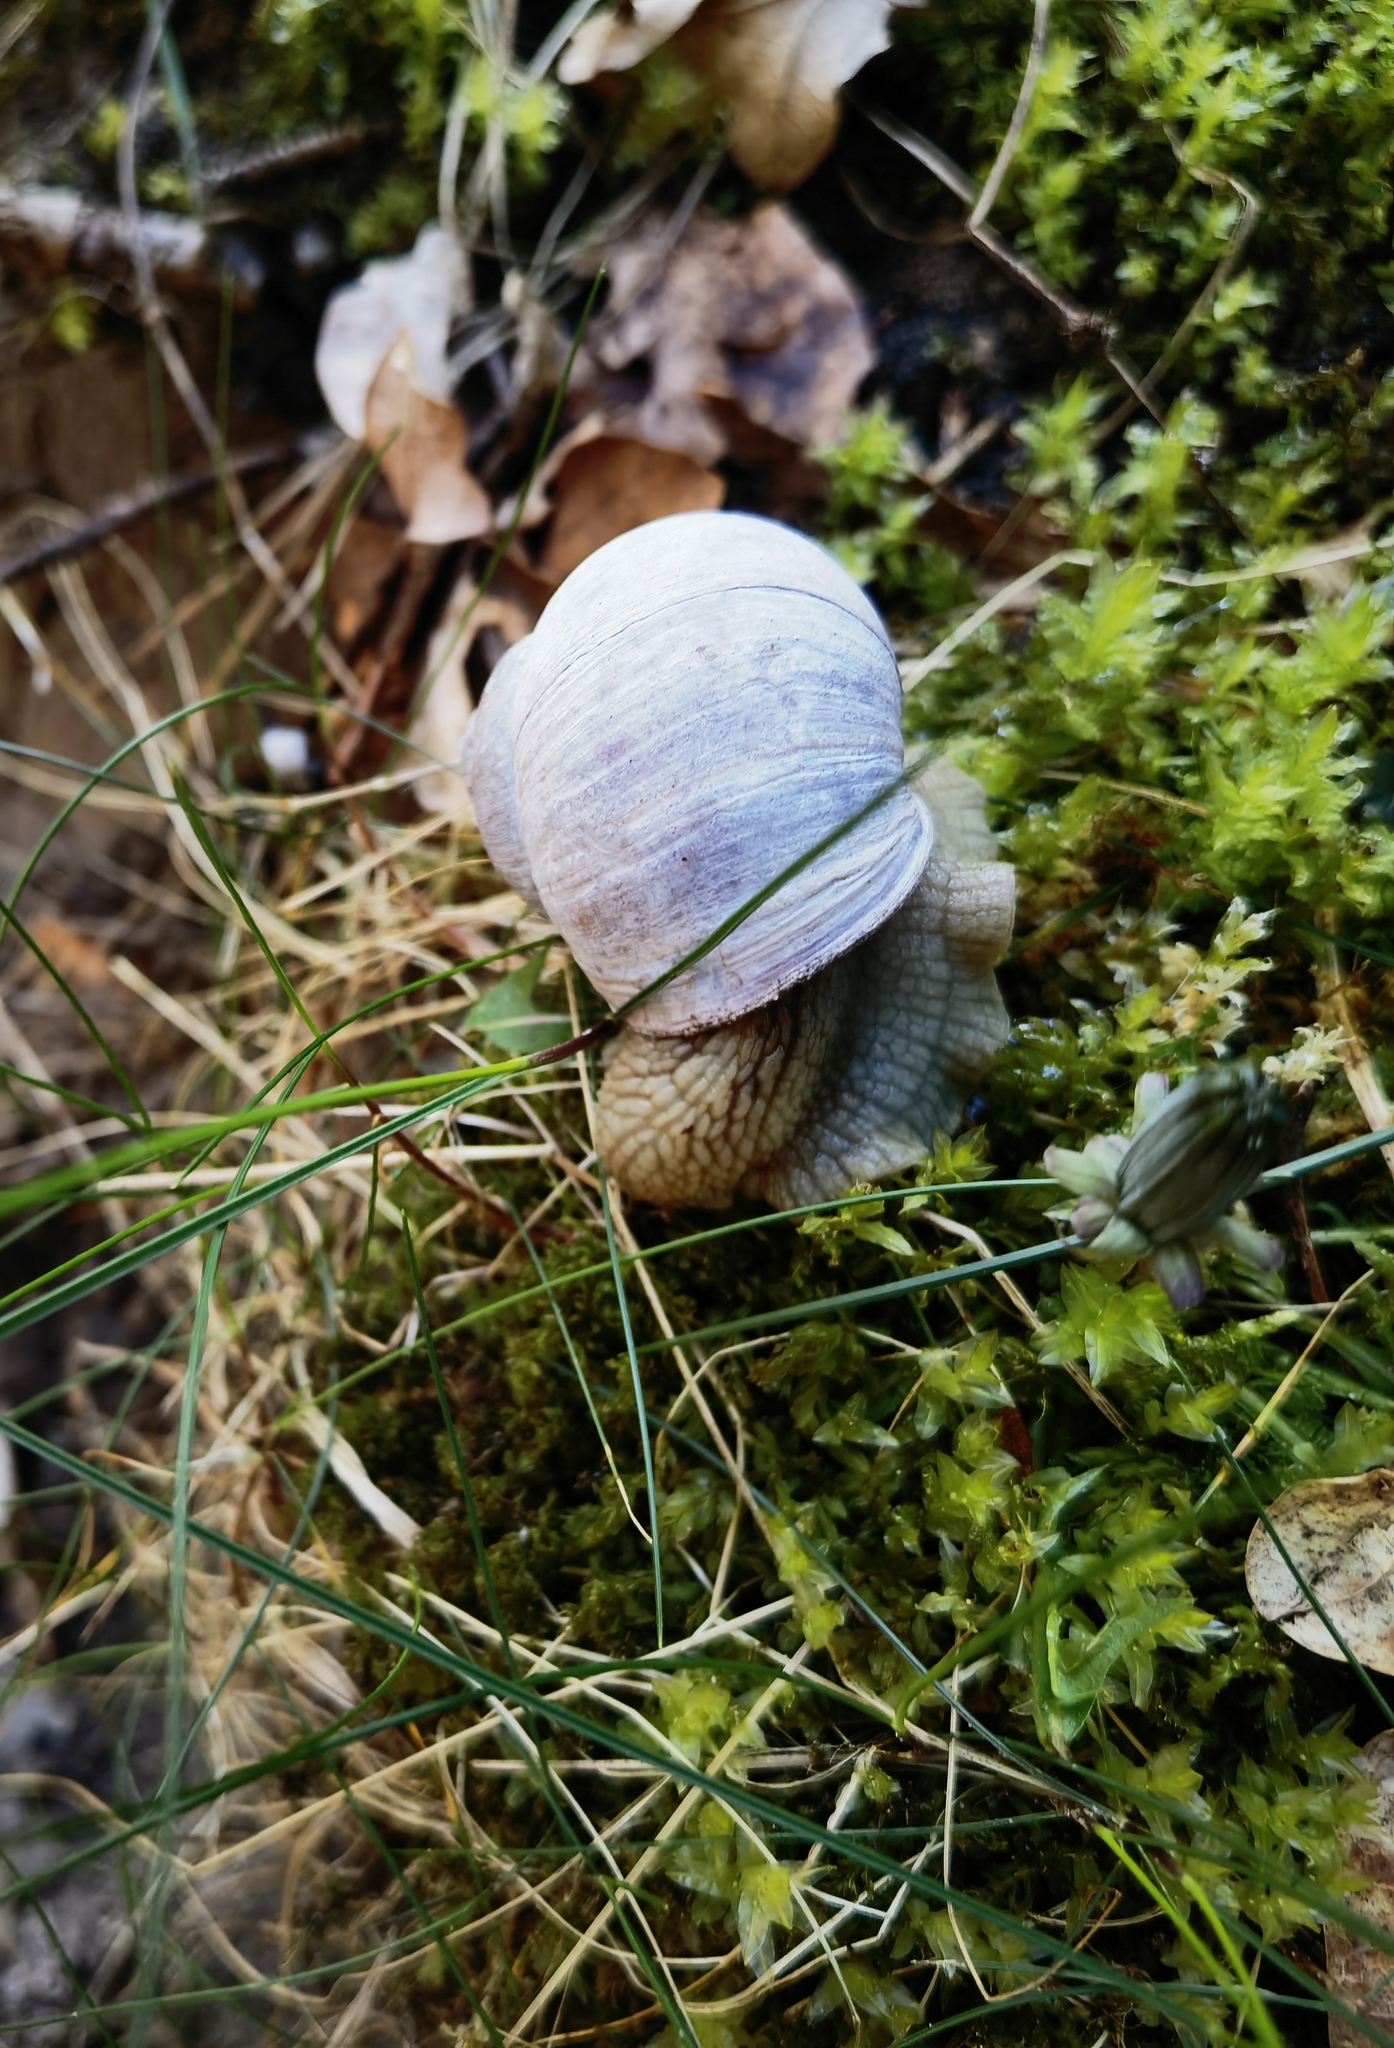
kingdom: Animalia
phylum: Mollusca
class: Gastropoda
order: Stylommatophora
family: Helicidae
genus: Helix
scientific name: Helix pomatia
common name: Roman snail
